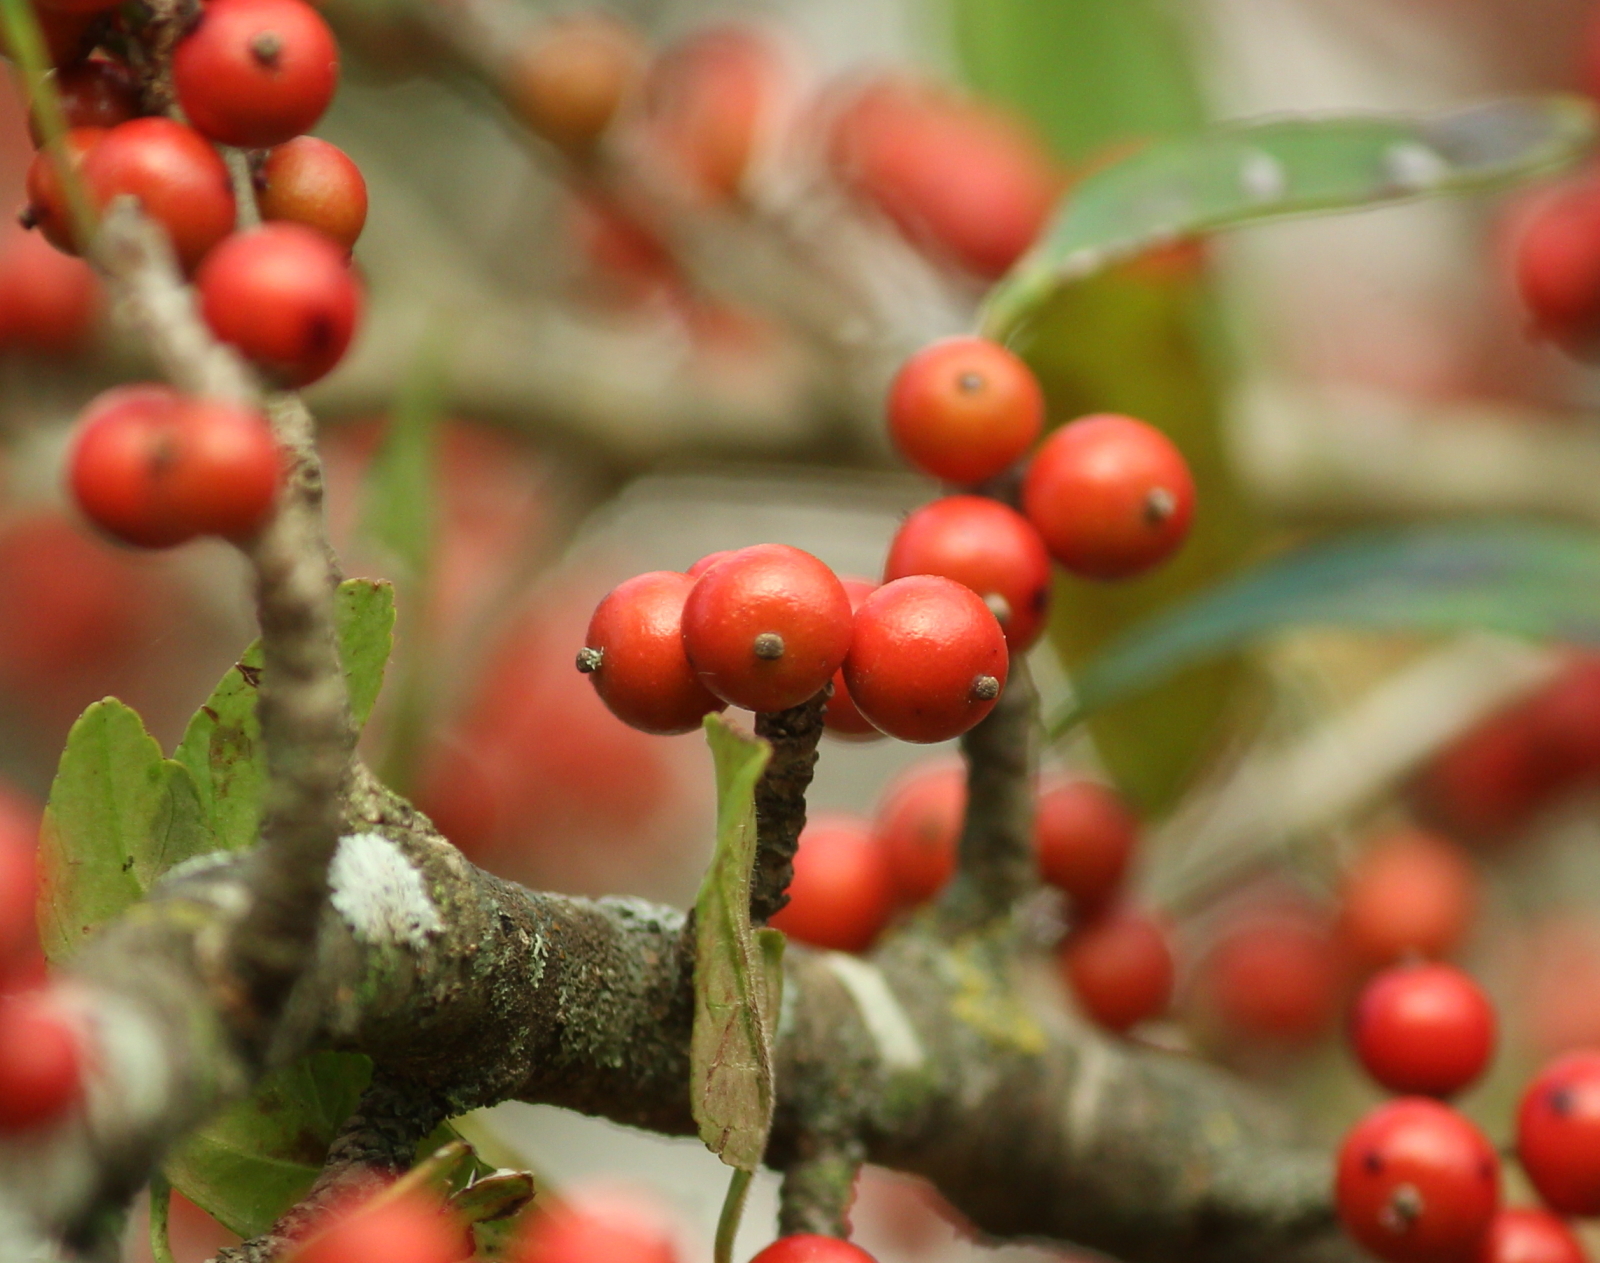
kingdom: Plantae
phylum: Tracheophyta
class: Magnoliopsida
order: Aquifoliales
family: Aquifoliaceae
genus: Ilex
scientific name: Ilex decidua
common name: Possum-haw
